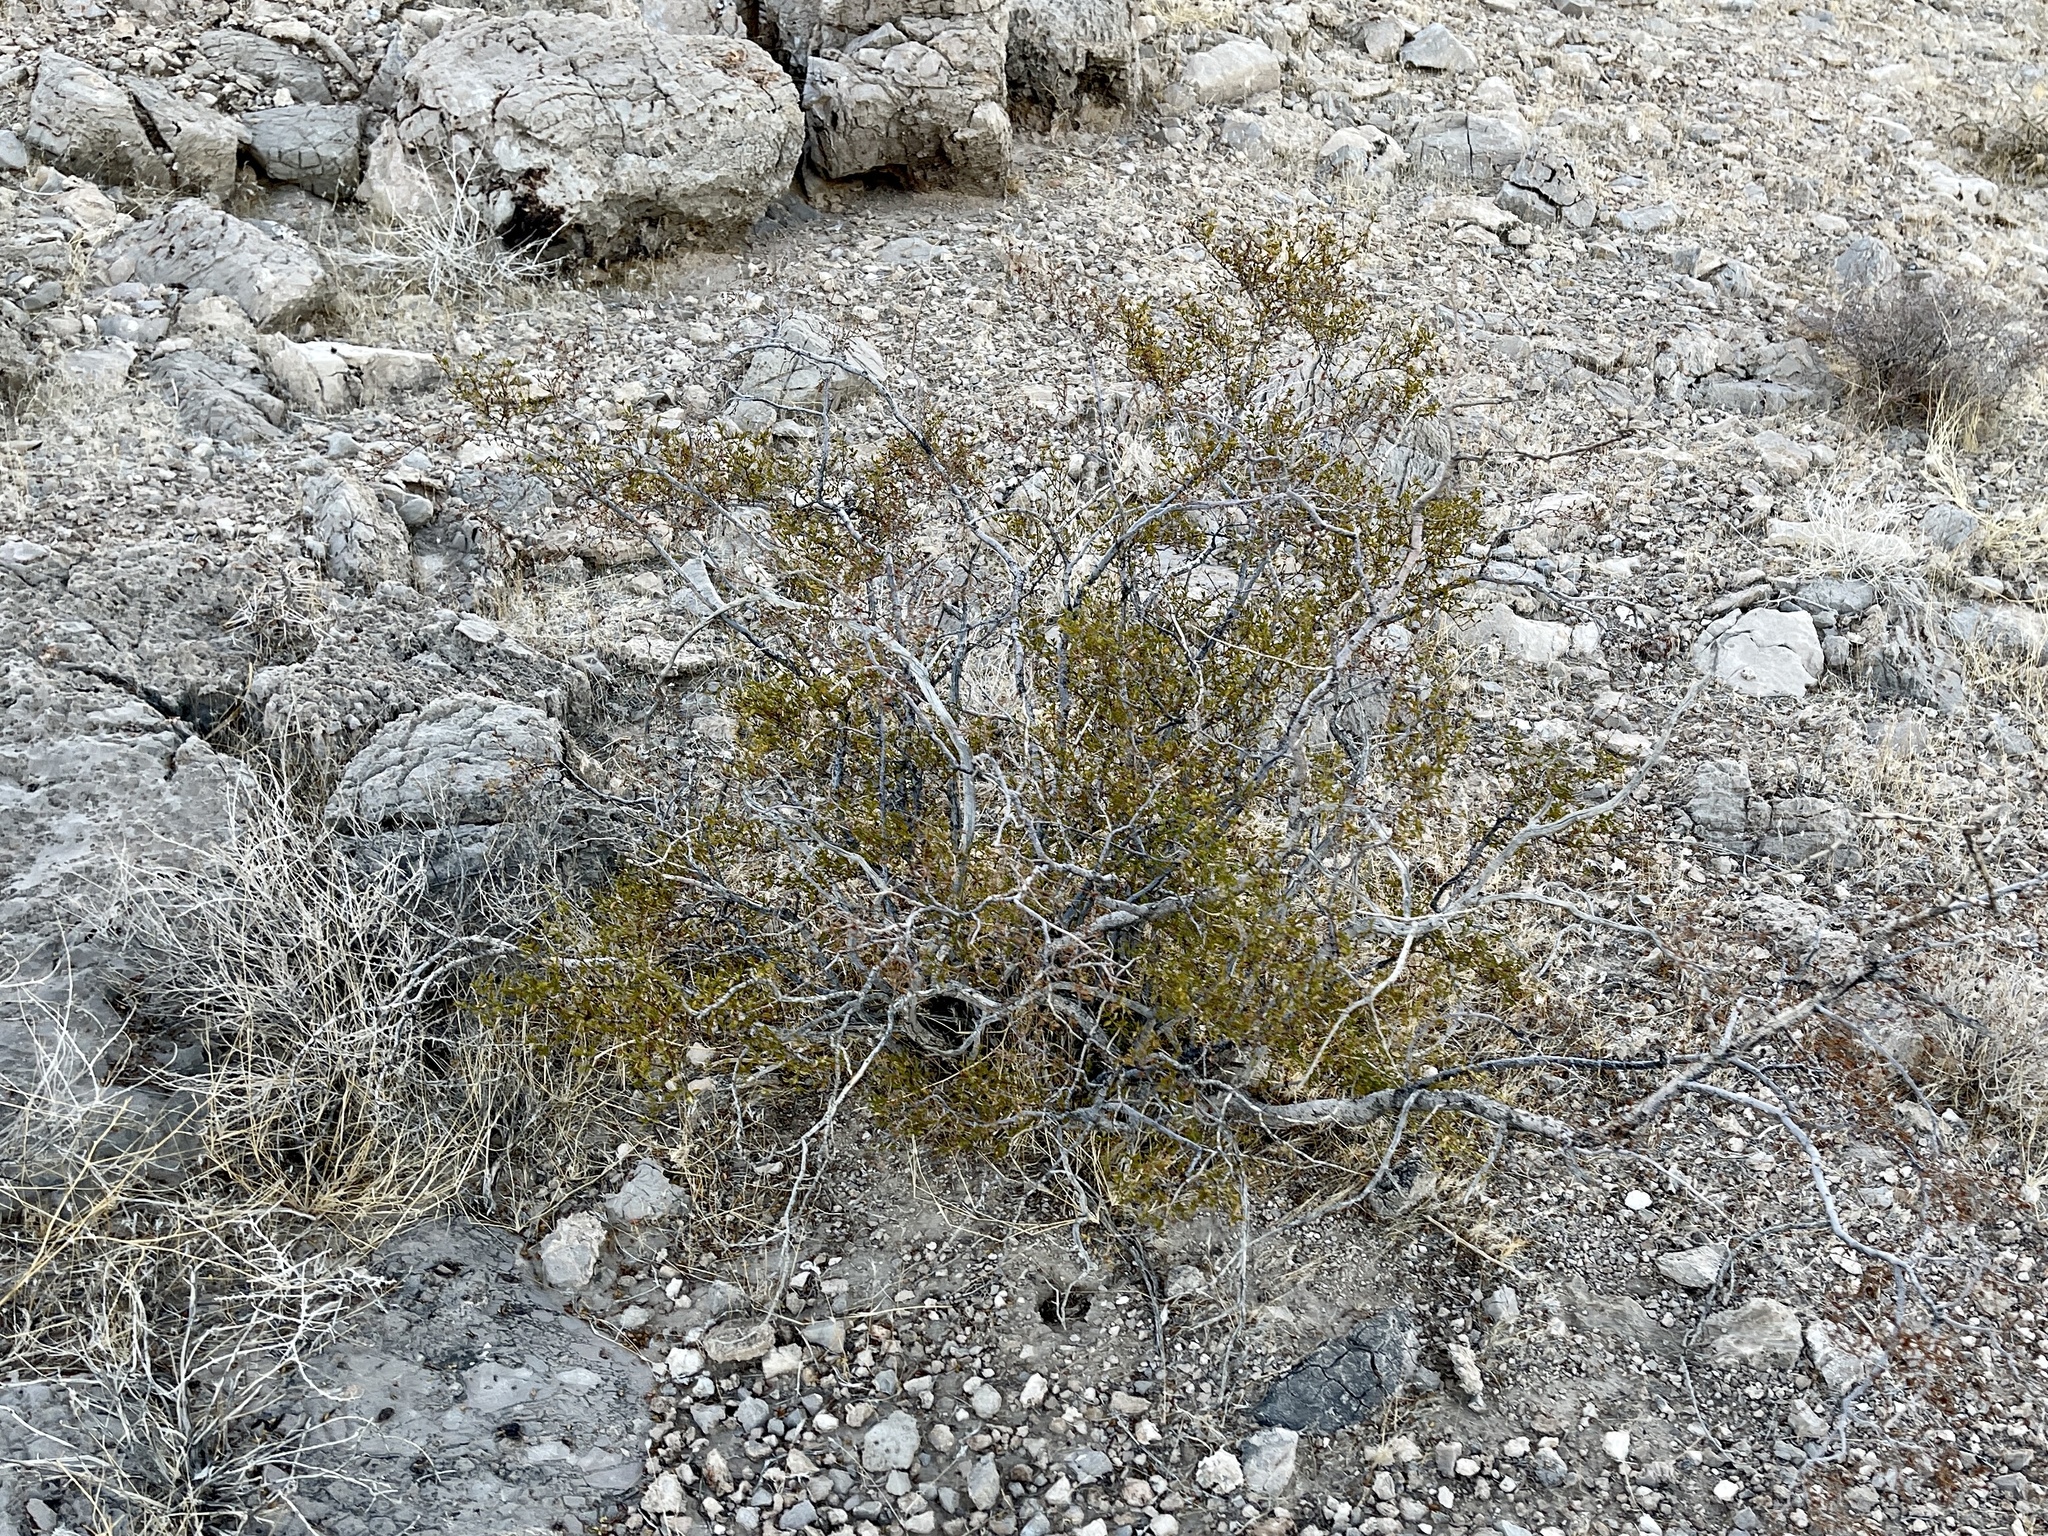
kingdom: Plantae
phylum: Tracheophyta
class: Magnoliopsida
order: Zygophyllales
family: Zygophyllaceae
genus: Larrea
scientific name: Larrea tridentata
